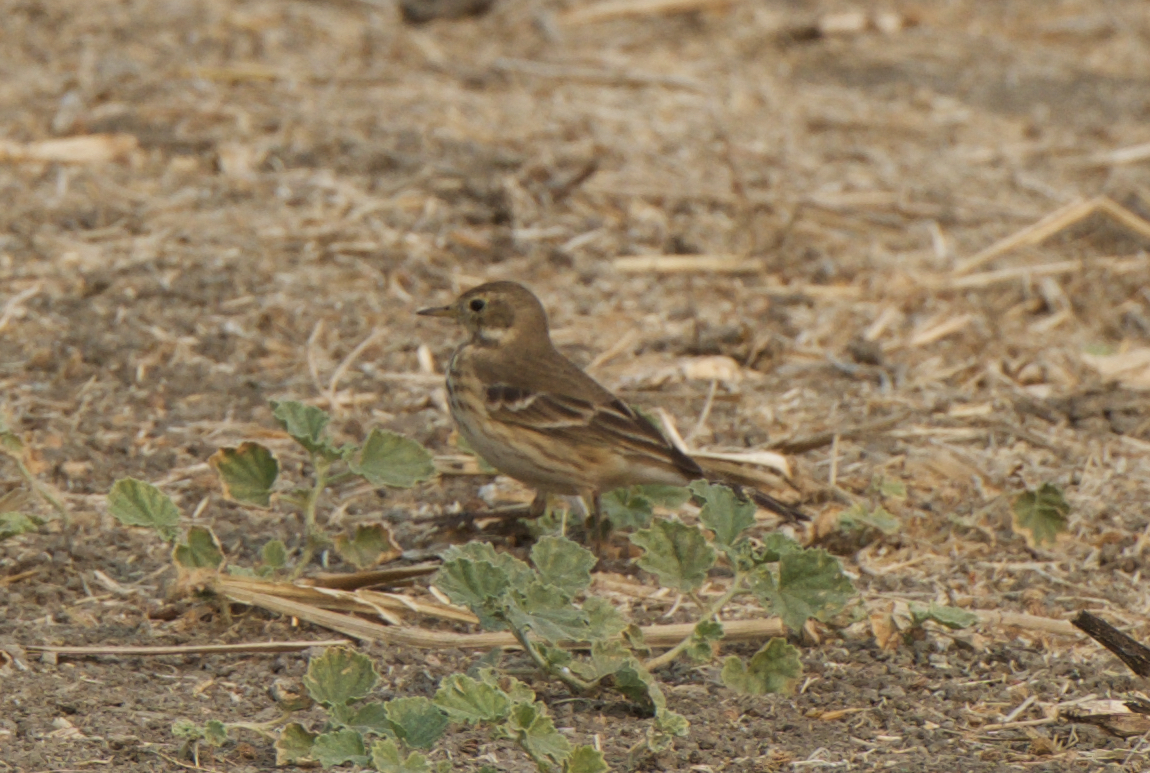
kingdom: Animalia
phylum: Chordata
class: Aves
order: Passeriformes
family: Motacillidae
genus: Anthus
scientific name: Anthus rubescens
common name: Buff-bellied pipit
